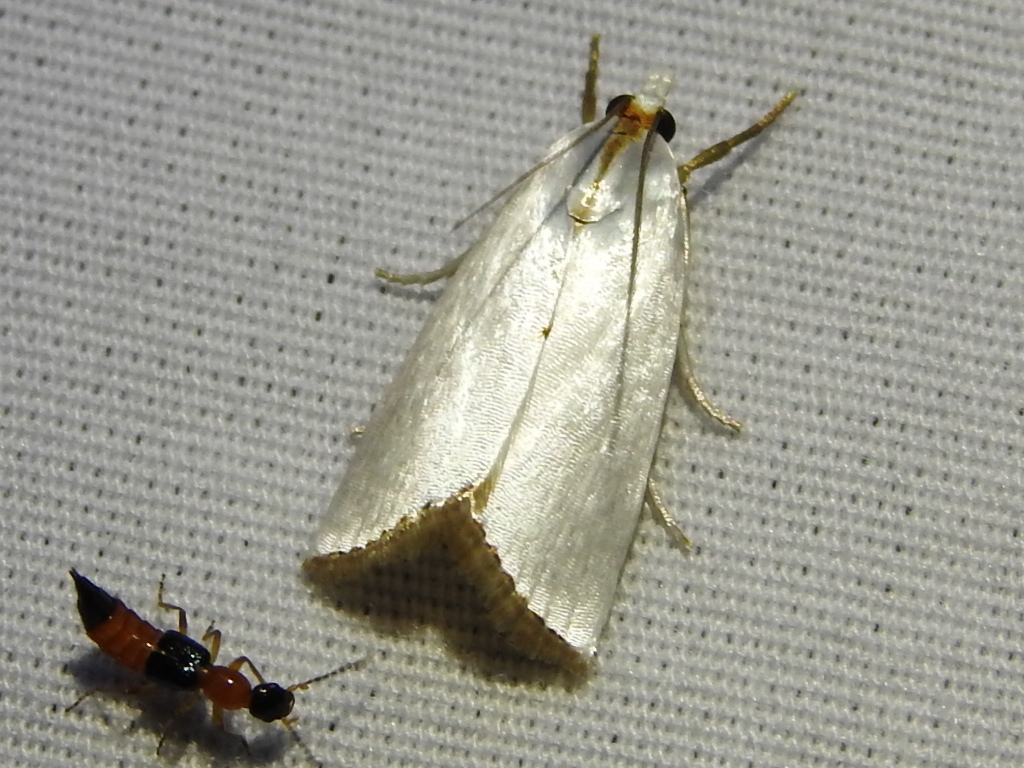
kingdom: Animalia
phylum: Arthropoda
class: Insecta
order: Lepidoptera
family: Crambidae
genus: Argyria
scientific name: Argyria nivalis
